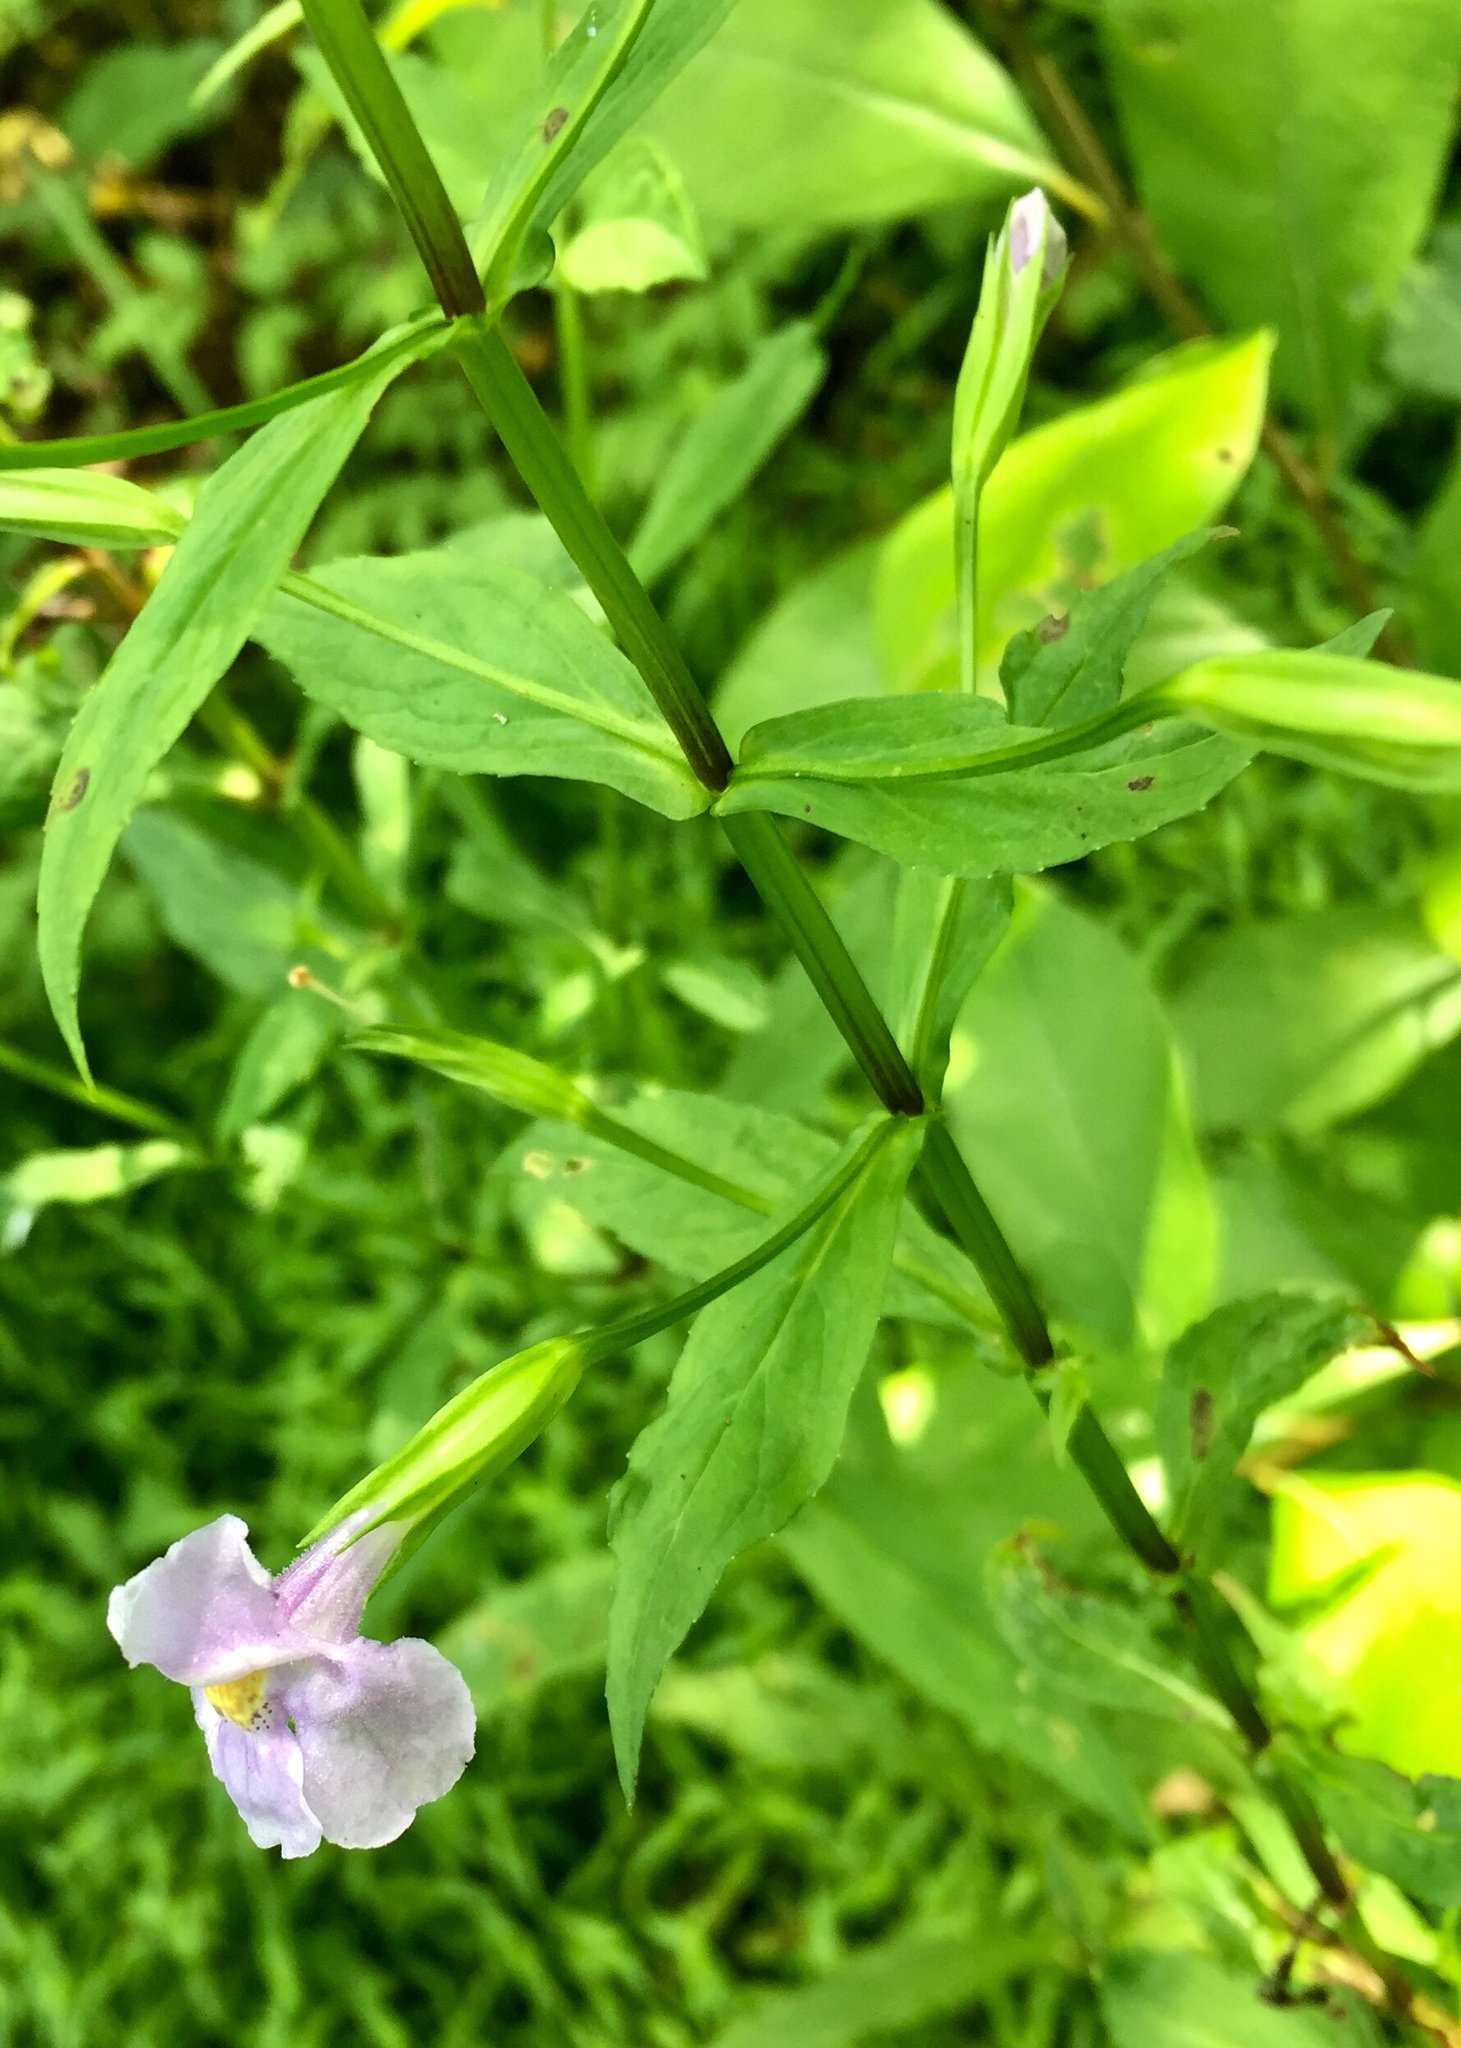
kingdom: Plantae
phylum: Tracheophyta
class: Magnoliopsida
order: Lamiales
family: Phrymaceae
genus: Mimulus
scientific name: Mimulus ringens
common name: Allegheny monkeyflower
